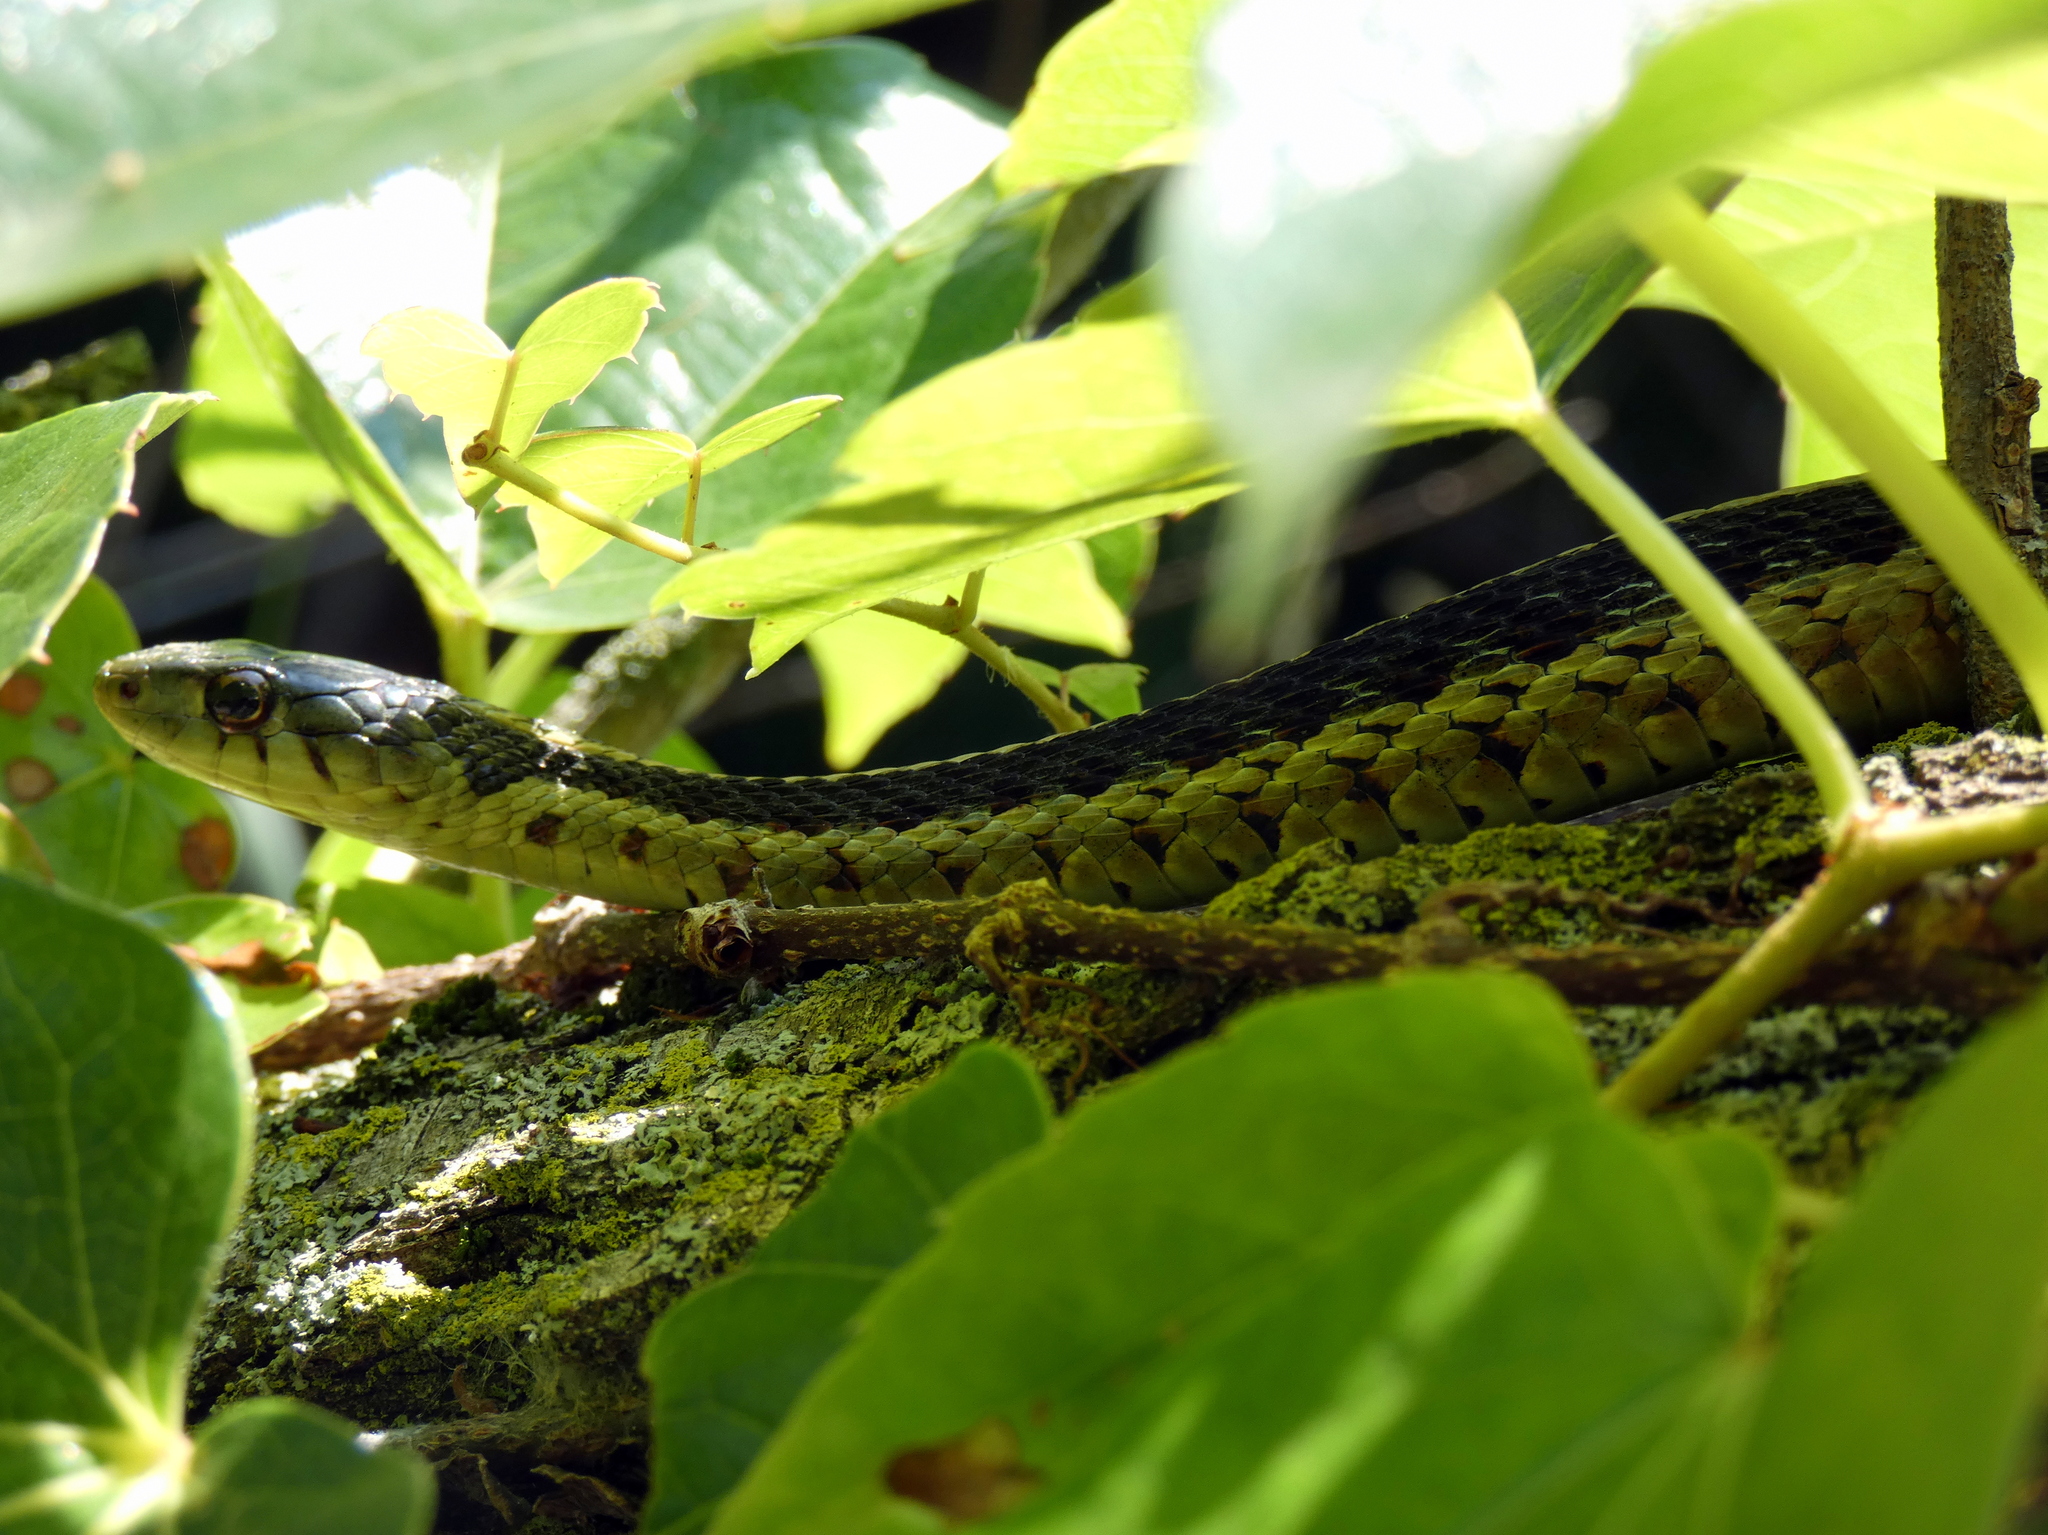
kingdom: Animalia
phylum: Chordata
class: Squamata
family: Colubridae
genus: Thamnophis
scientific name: Thamnophis sirtalis
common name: Common garter snake
